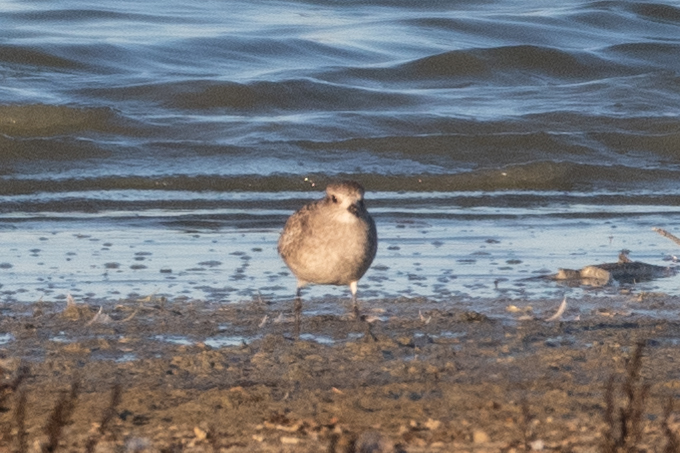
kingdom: Animalia
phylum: Chordata
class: Aves
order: Charadriiformes
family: Charadriidae
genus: Pluvialis
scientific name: Pluvialis squatarola
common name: Grey plover
